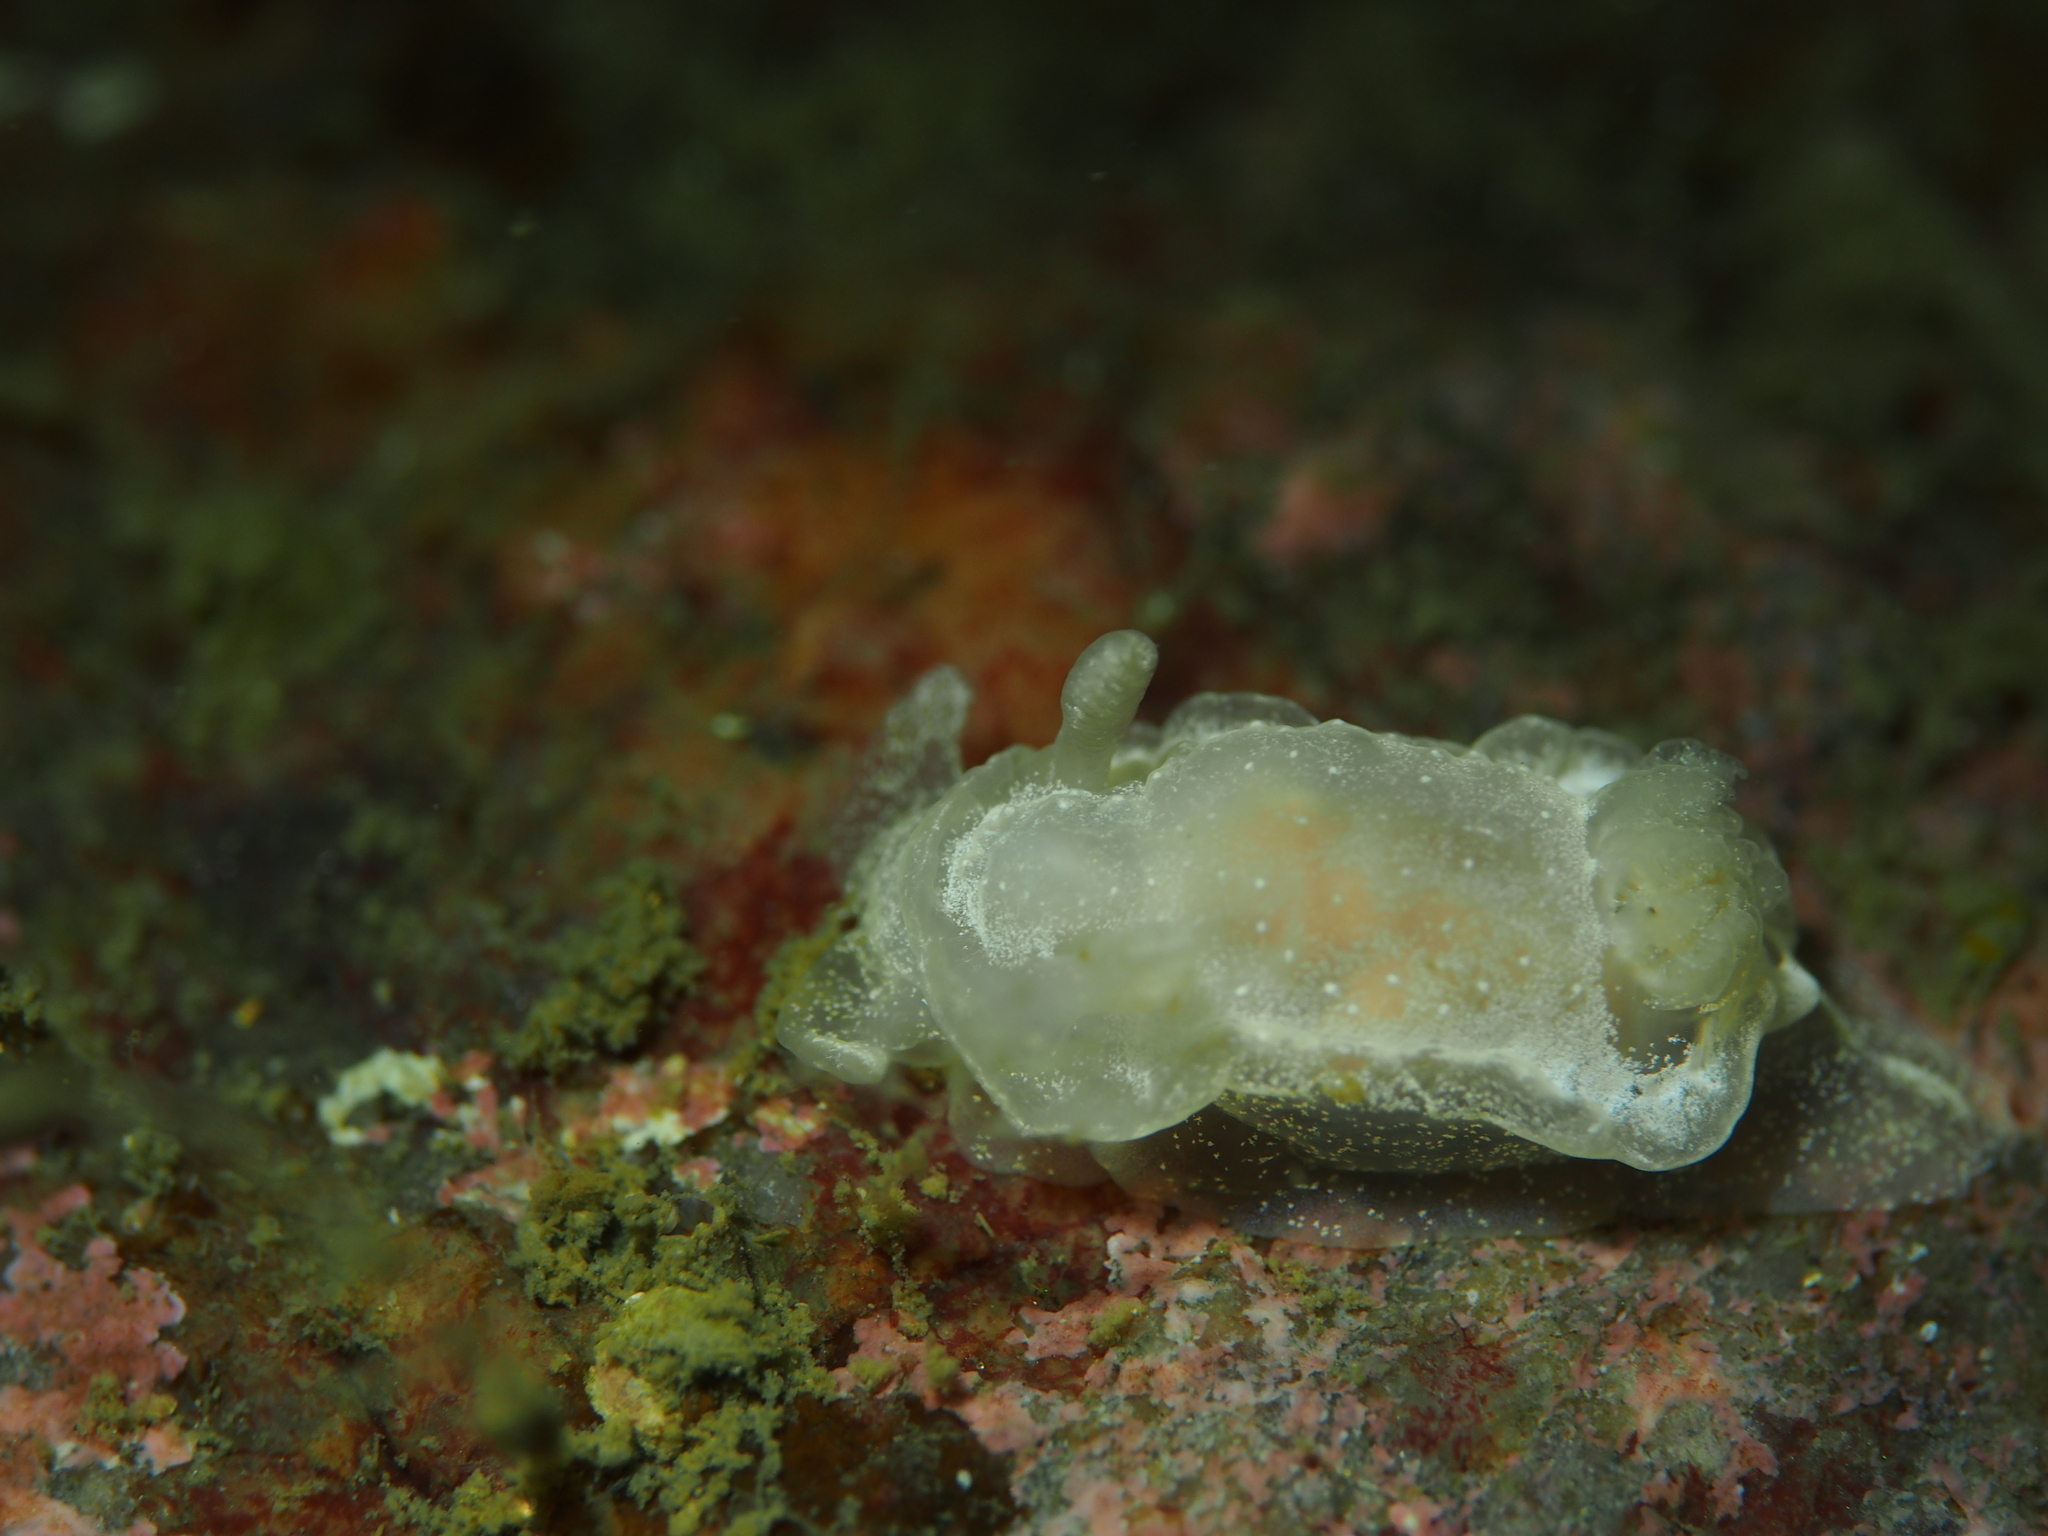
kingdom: Animalia
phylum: Mollusca
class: Gastropoda
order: Nudibranchia
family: Goniodorididae
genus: Okenia
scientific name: Okenia
